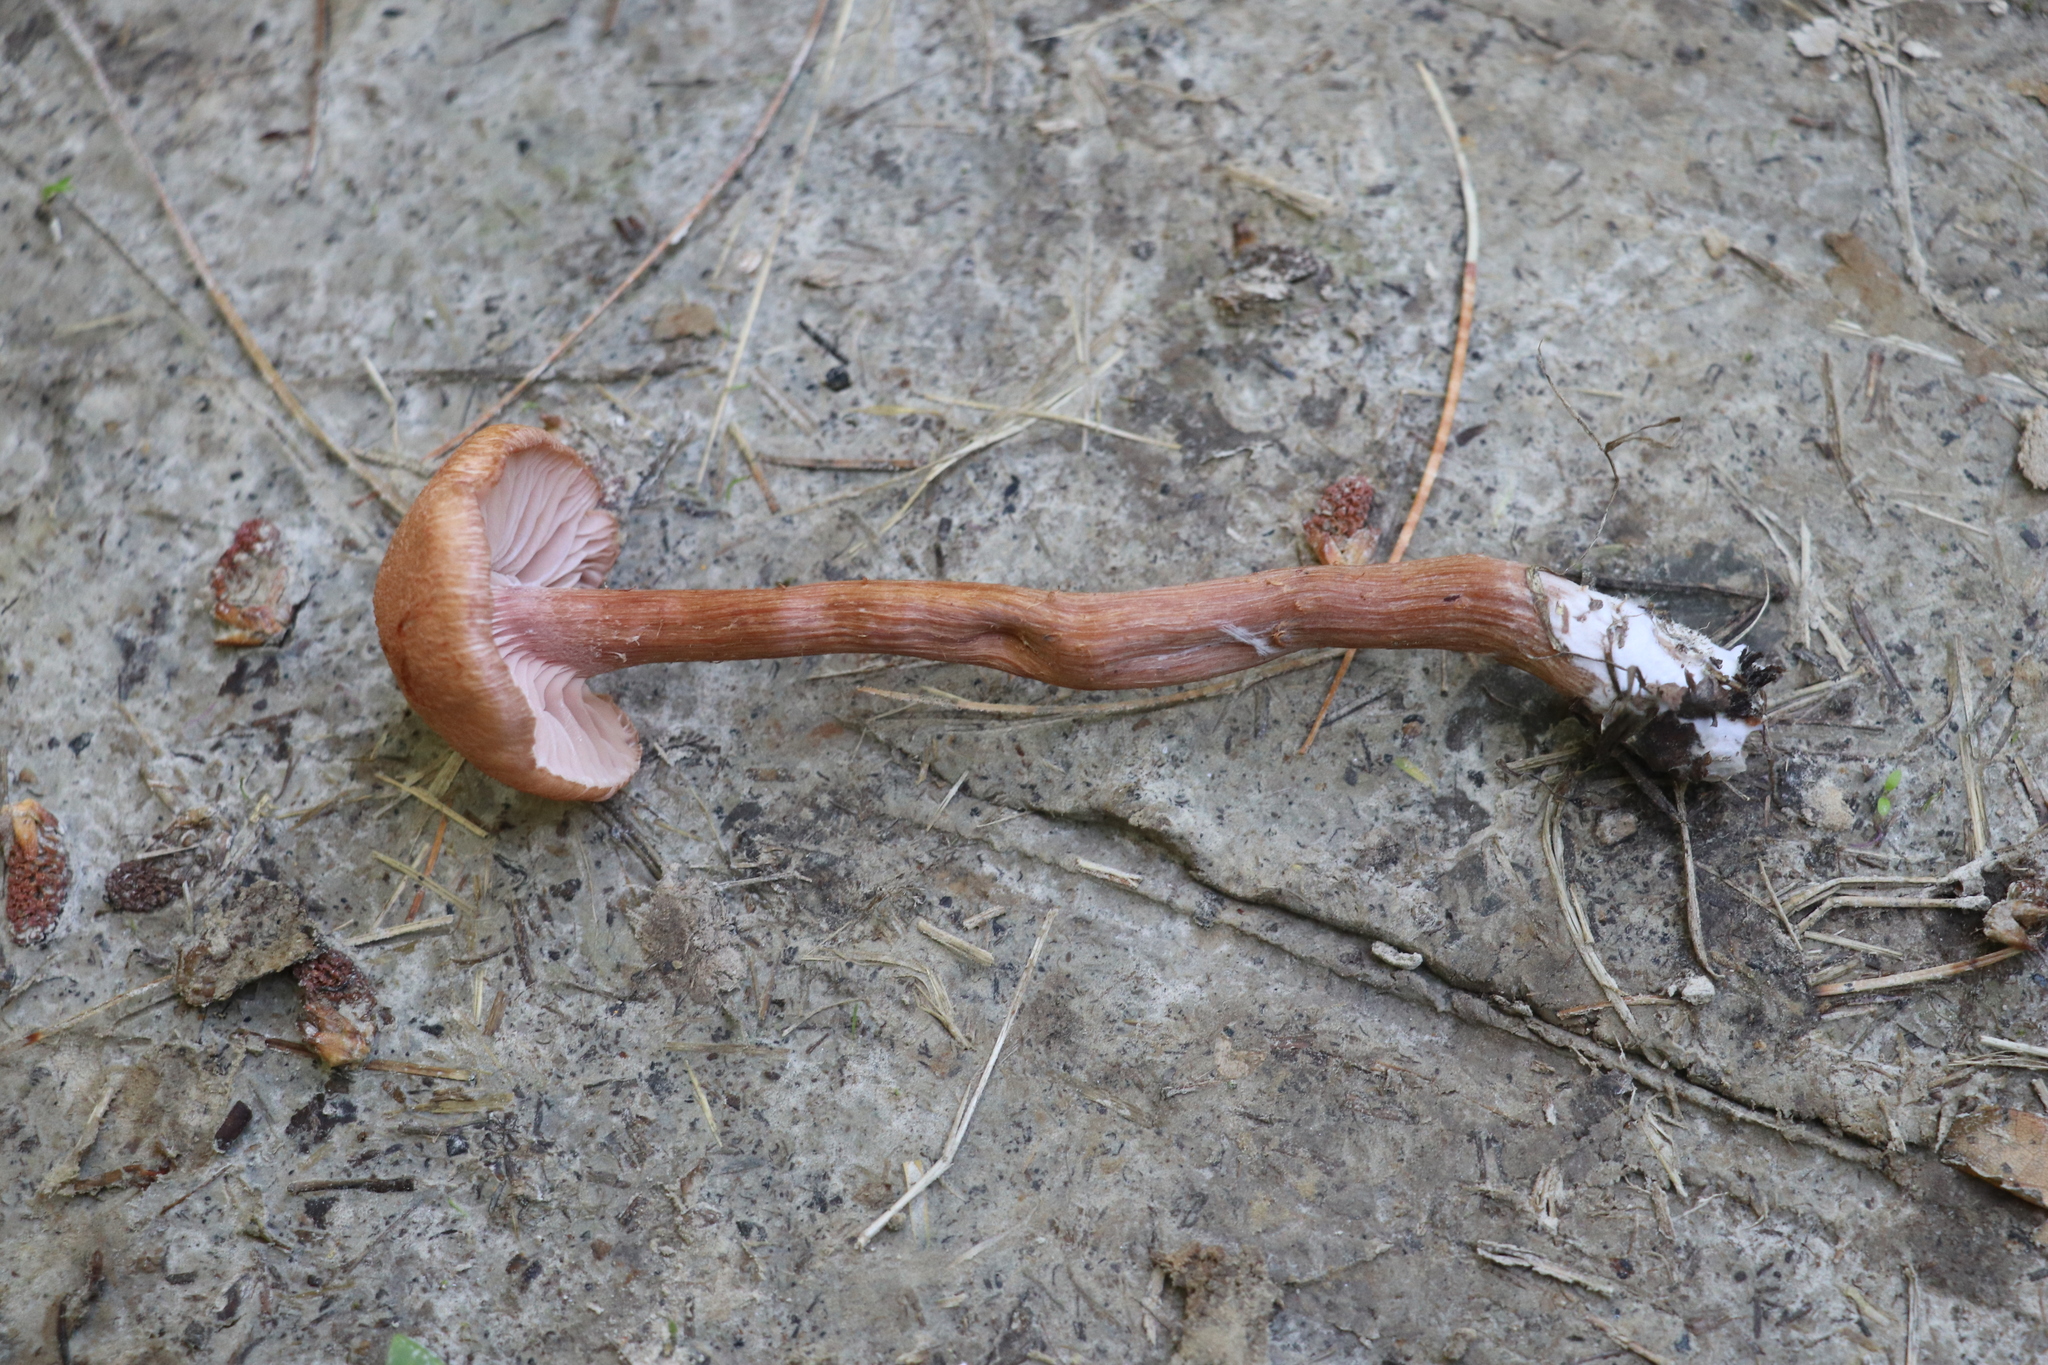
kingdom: Fungi
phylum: Basidiomycota
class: Agaricomycetes
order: Agaricales
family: Hydnangiaceae
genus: Laccaria
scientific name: Laccaria proxima
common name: Scurfy deceiver
